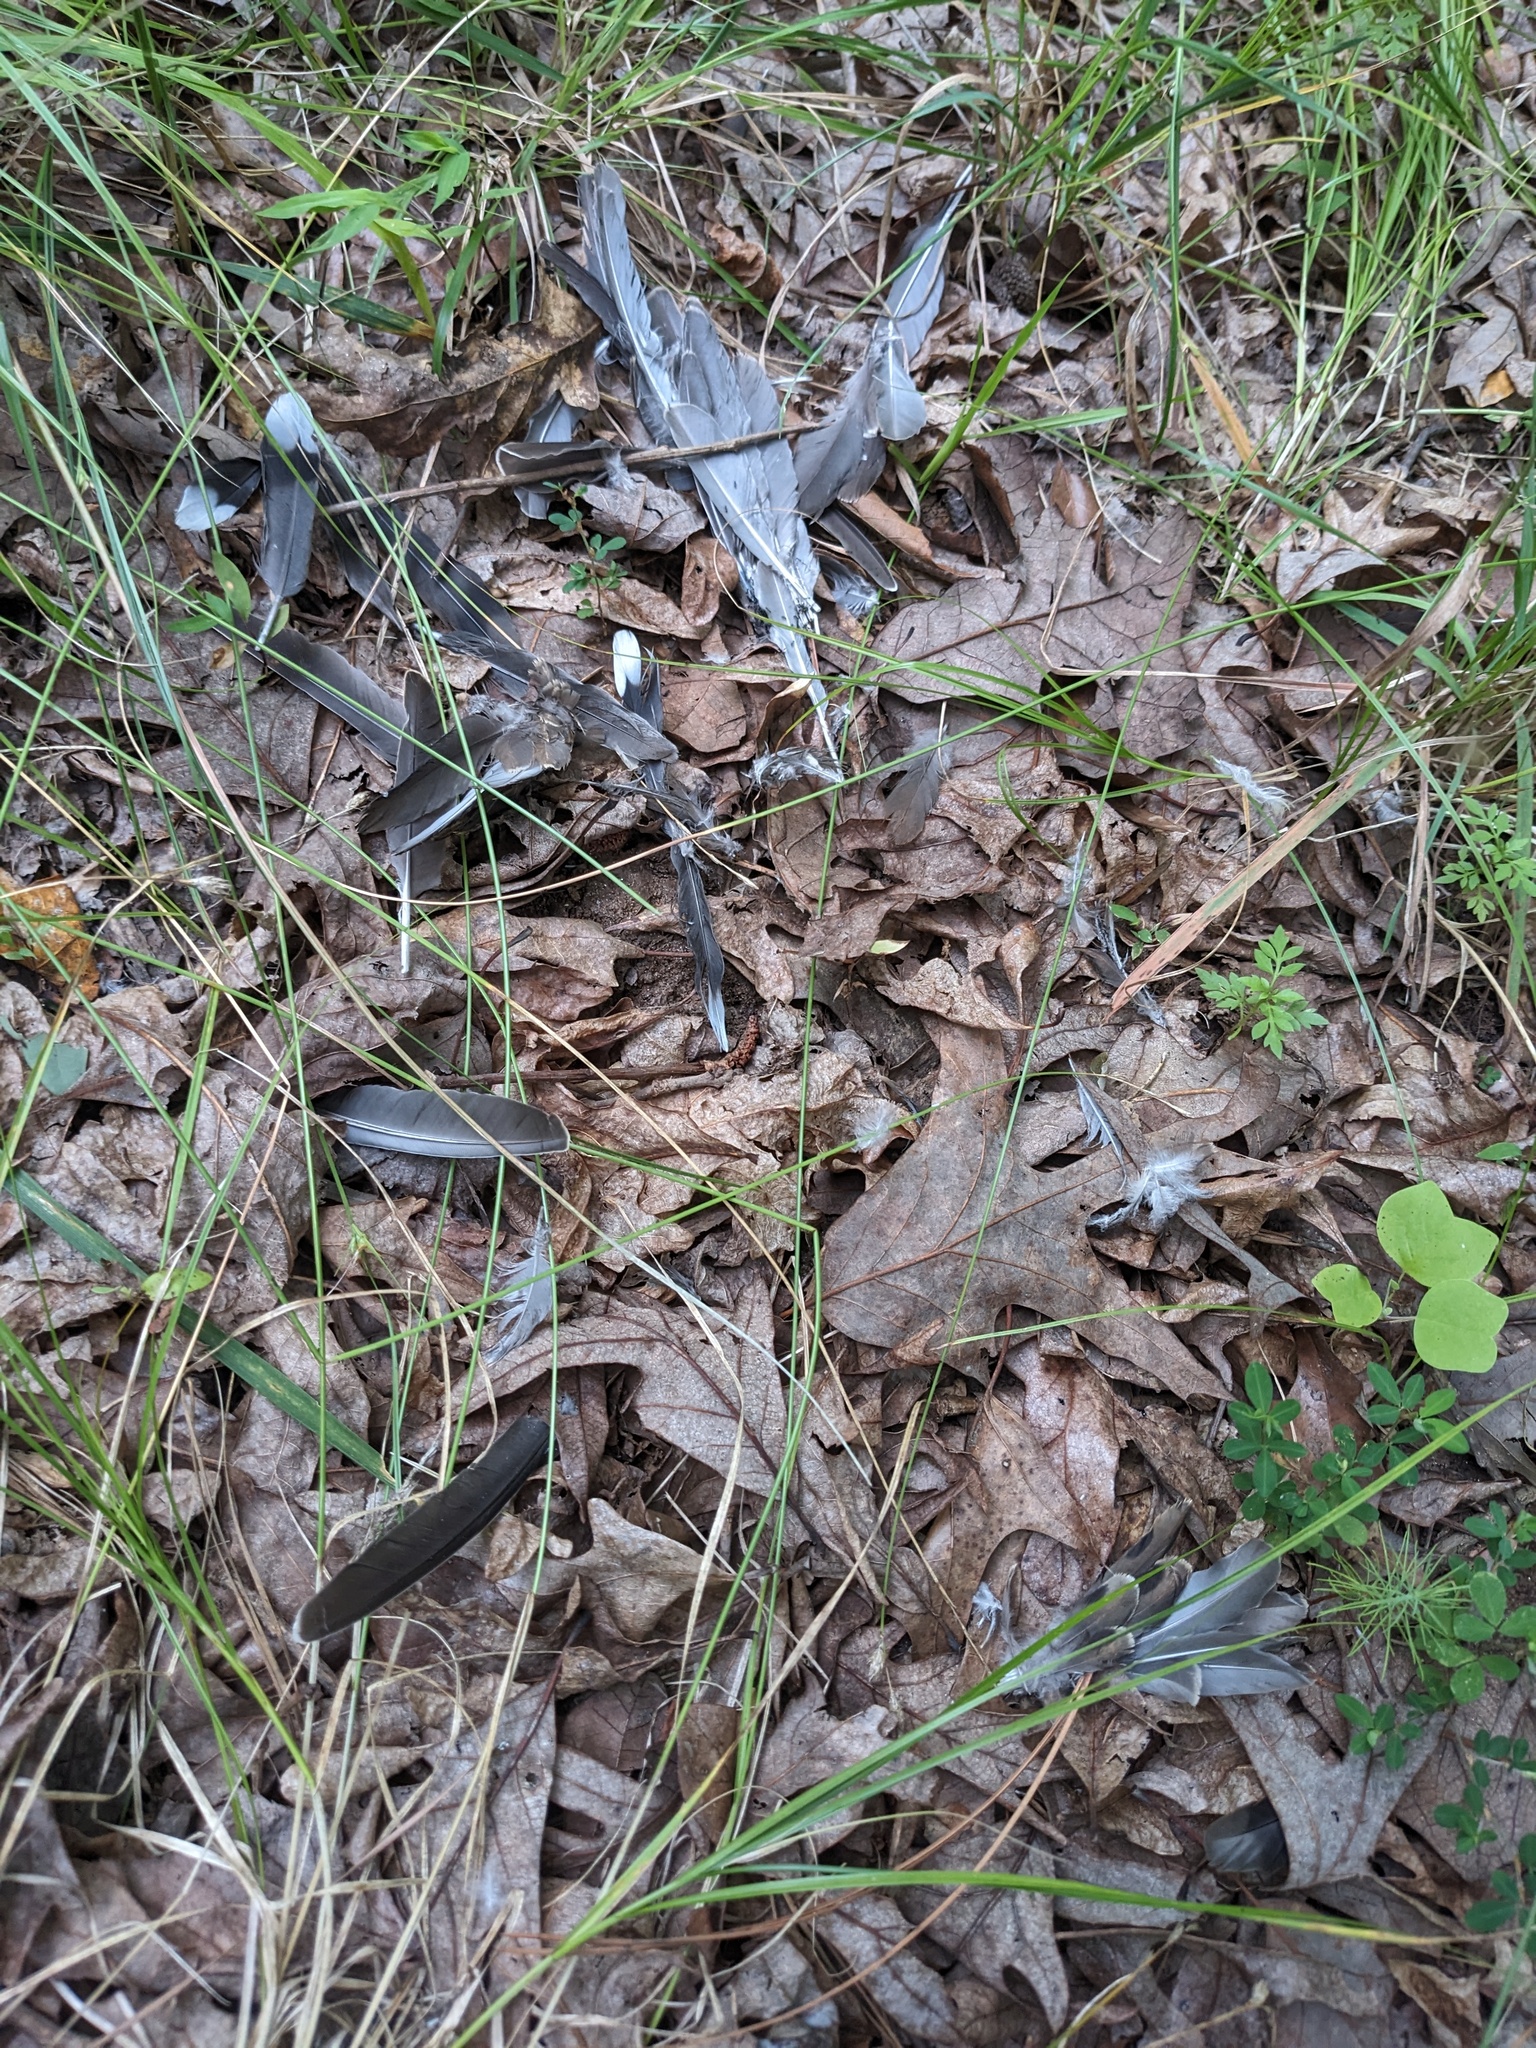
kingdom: Animalia
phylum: Chordata
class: Aves
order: Columbiformes
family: Columbidae
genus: Zenaida
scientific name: Zenaida macroura
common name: Mourning dove
